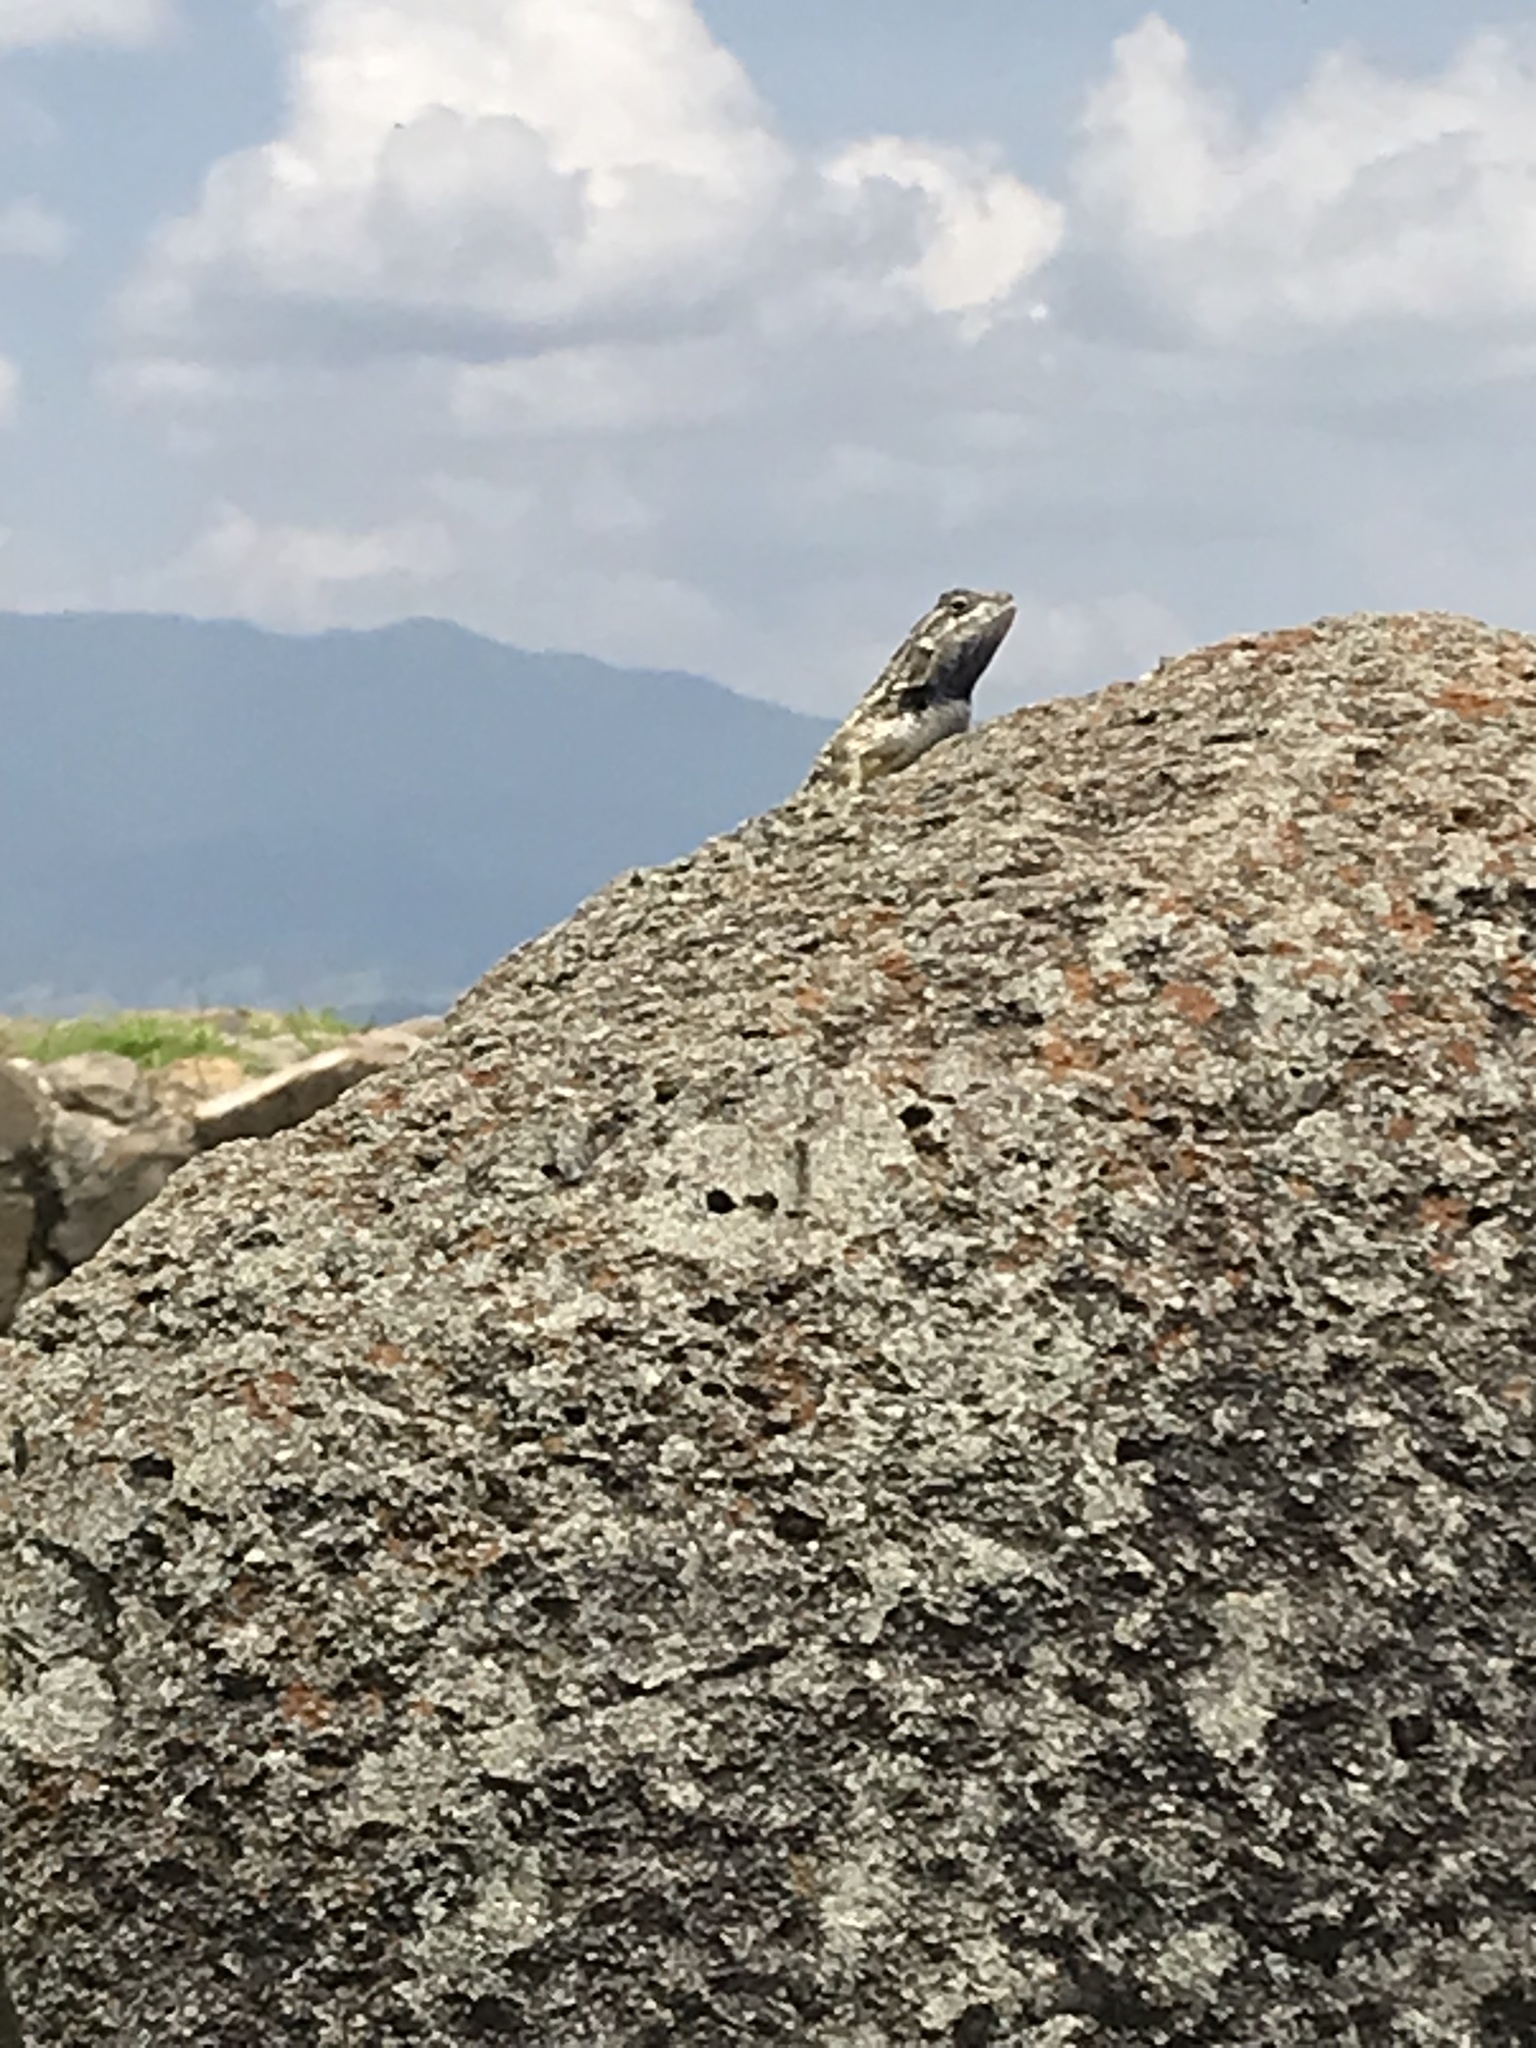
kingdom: Animalia
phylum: Chordata
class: Squamata
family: Phrynosomatidae
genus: Sceloporus
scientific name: Sceloporus spinosus
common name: Blue-spotted spiny lizard [caeruleopunctatus]
